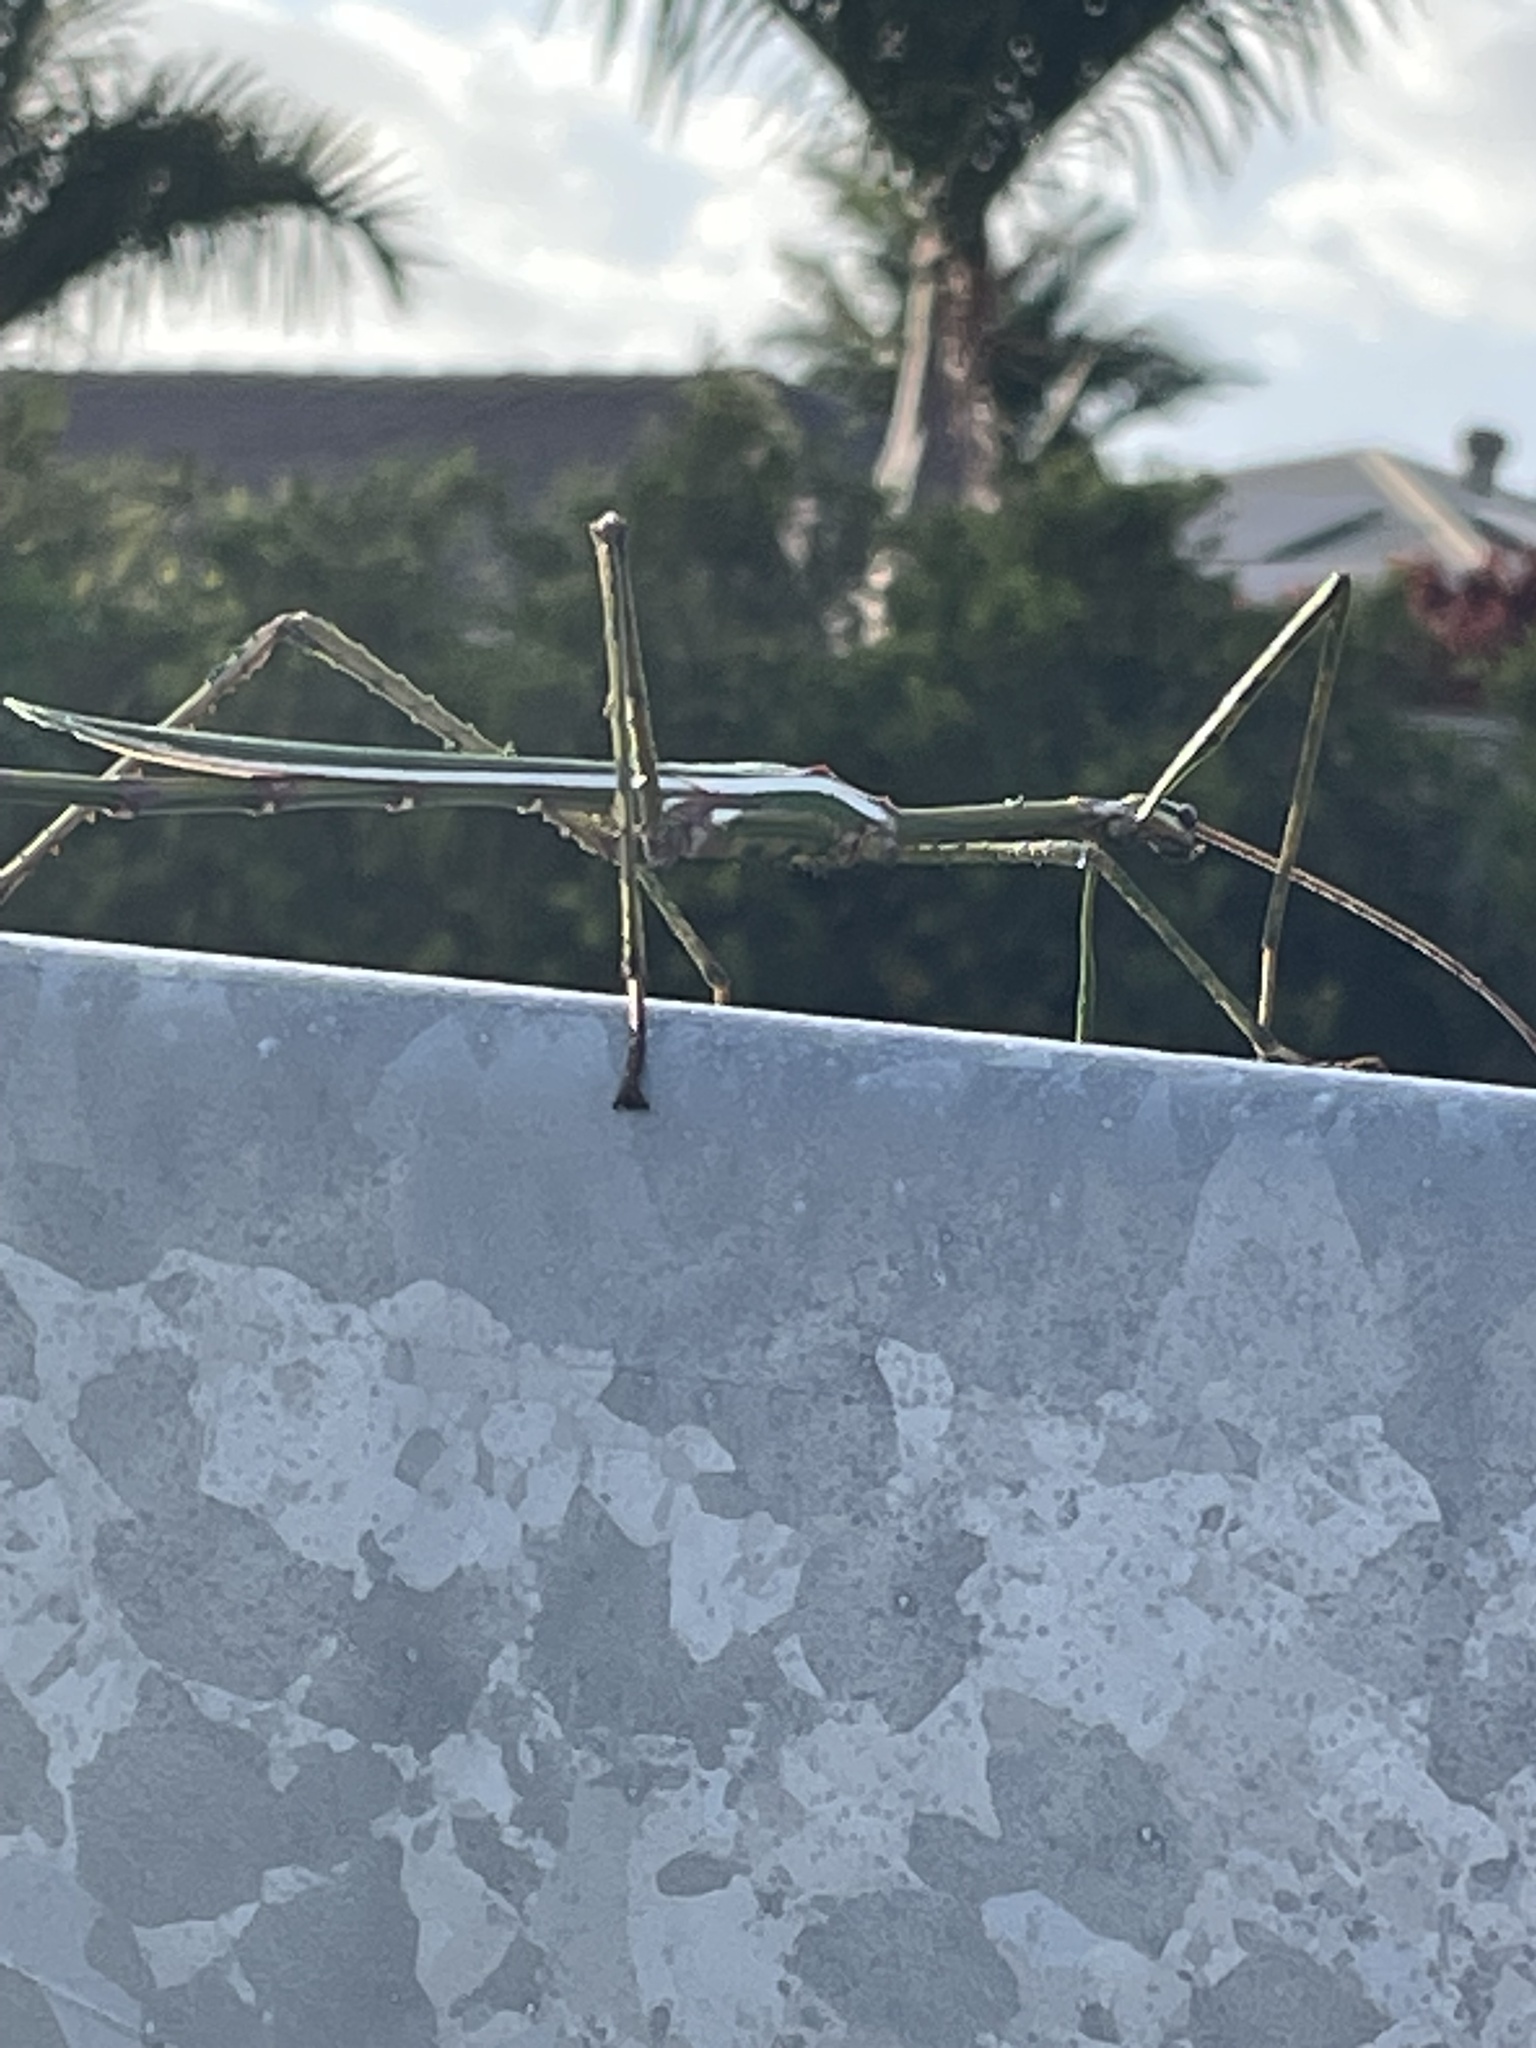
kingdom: Animalia
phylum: Arthropoda
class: Insecta
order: Phasmida
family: Phasmatidae
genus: Eurycnema
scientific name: Eurycnema goliath
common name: Goliath stick insect
